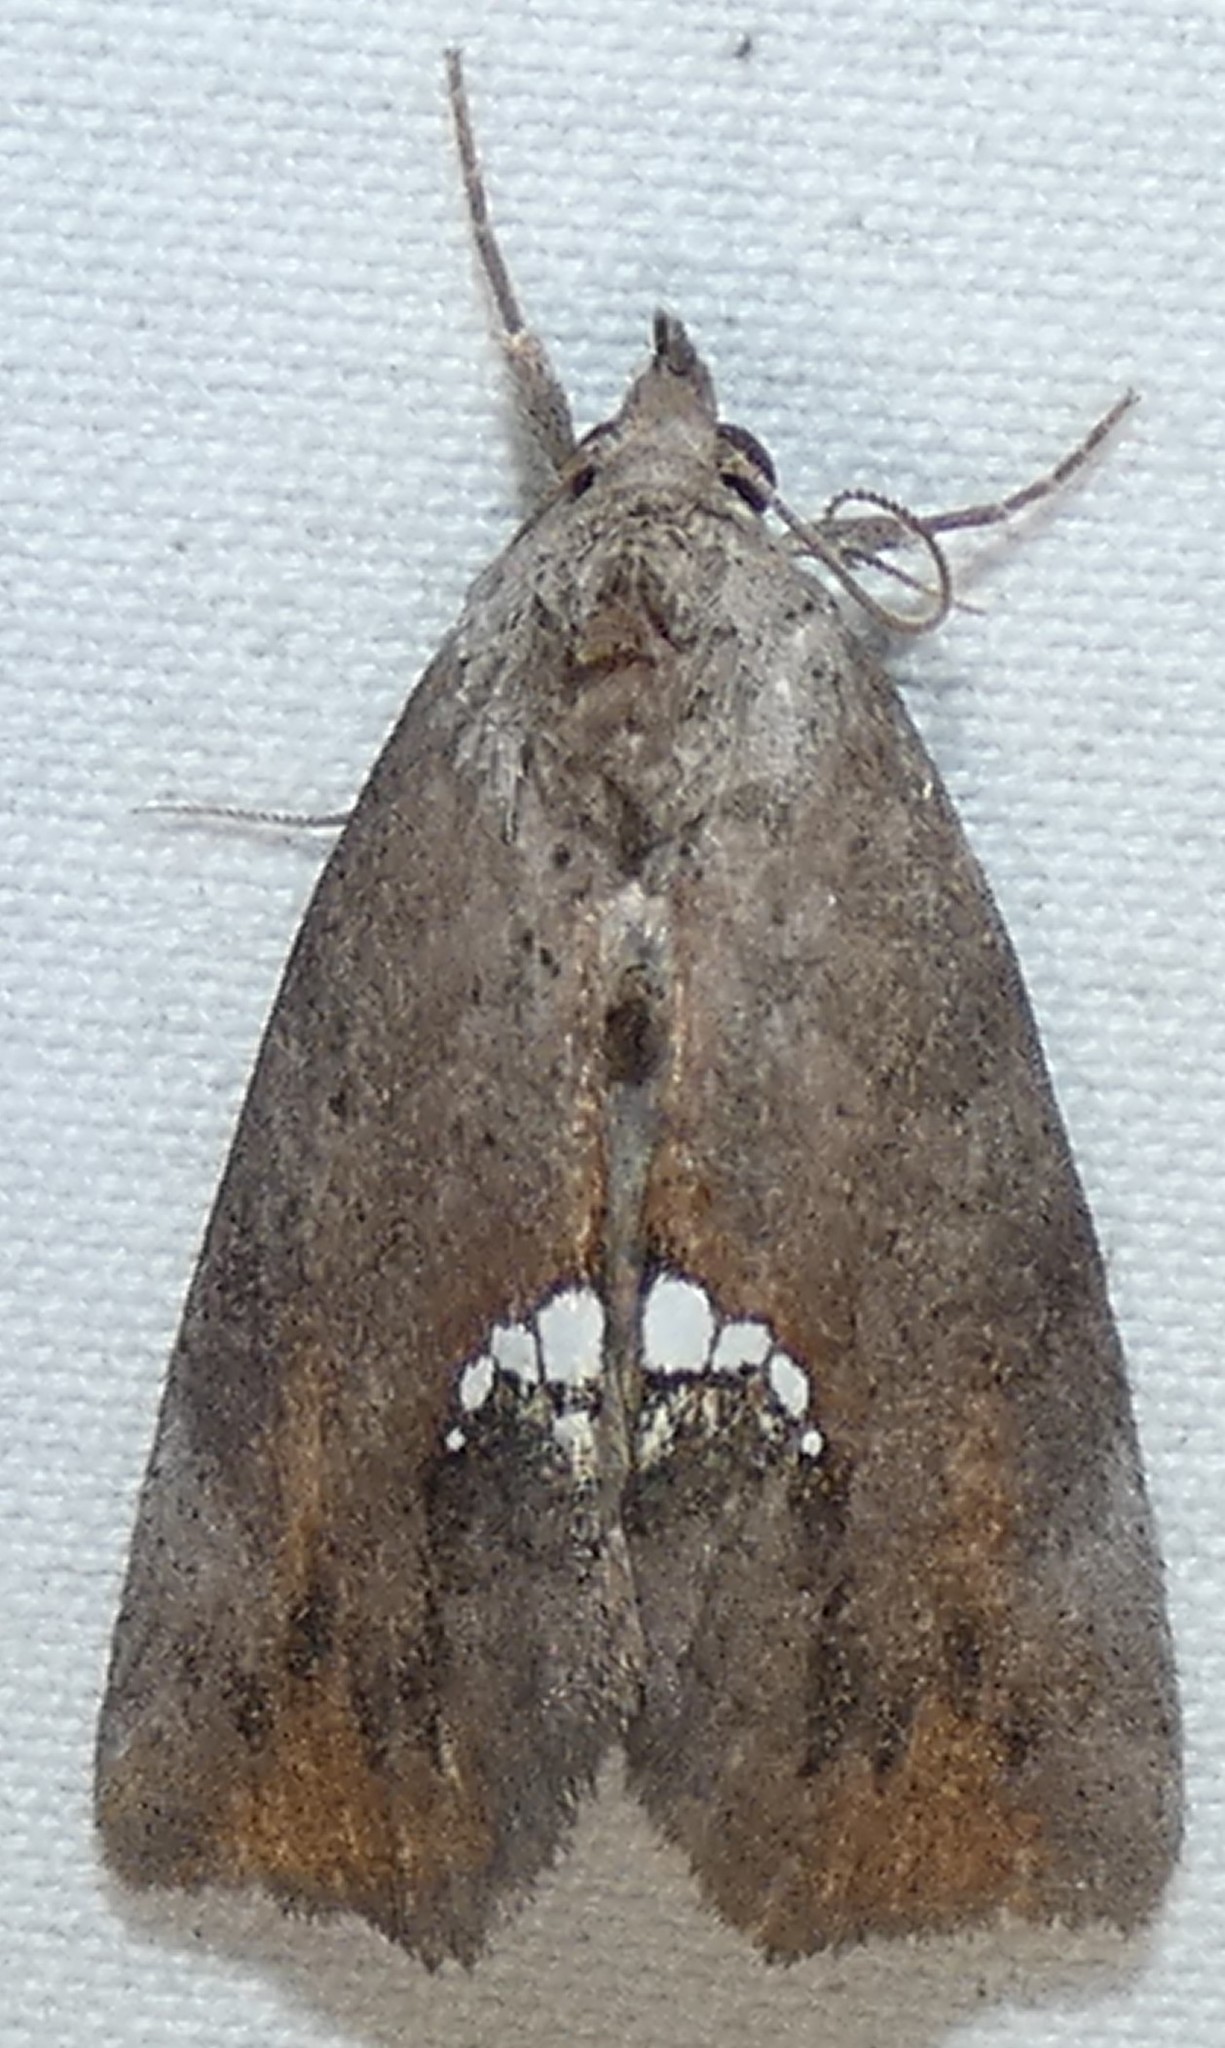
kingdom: Animalia
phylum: Arthropoda
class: Insecta
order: Lepidoptera
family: Erebidae
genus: Hypsoropha
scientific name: Hypsoropha hormos
